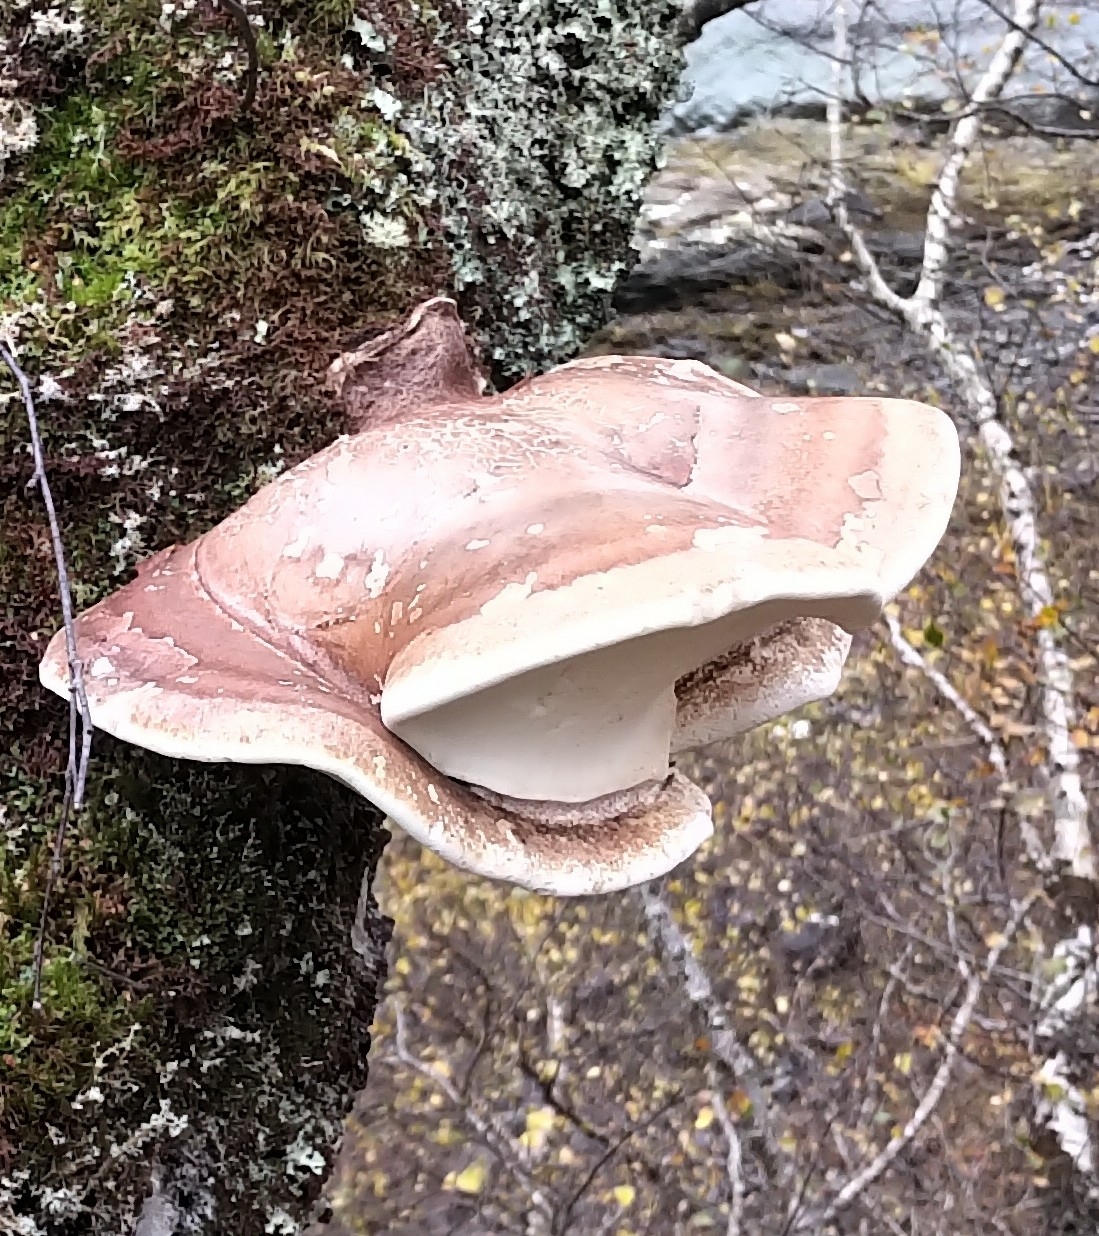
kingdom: Fungi
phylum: Basidiomycota
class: Agaricomycetes
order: Polyporales
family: Fomitopsidaceae
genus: Fomitopsis
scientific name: Fomitopsis betulina
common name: Birch polypore
